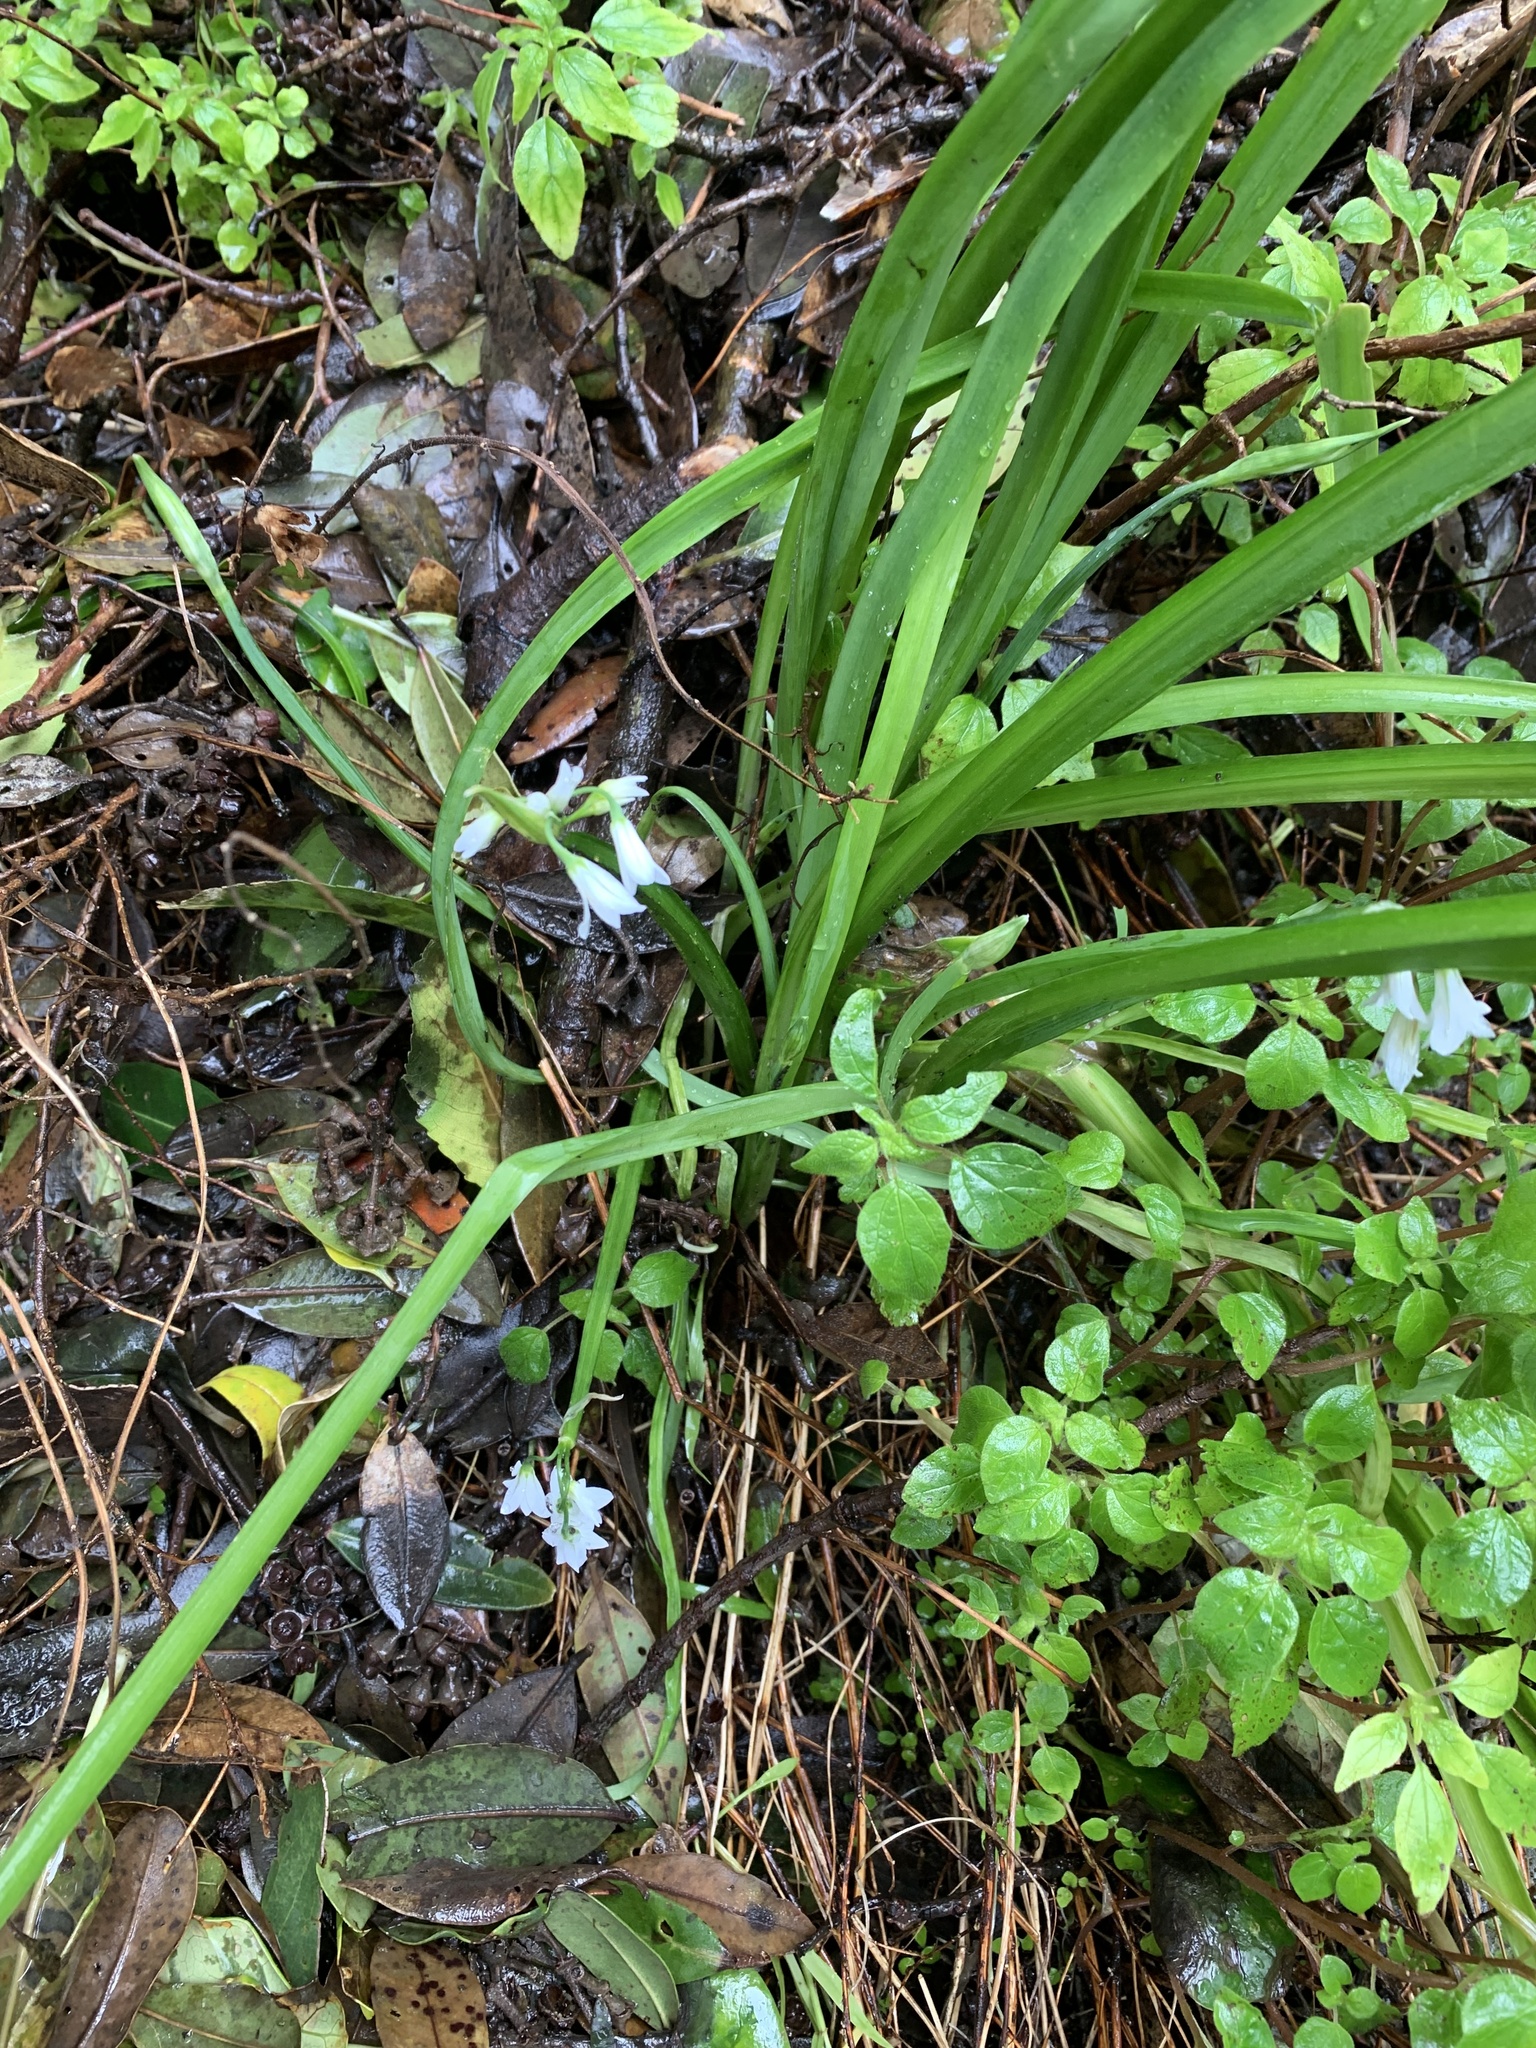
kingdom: Plantae
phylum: Tracheophyta
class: Liliopsida
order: Asparagales
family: Amaryllidaceae
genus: Allium
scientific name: Allium triquetrum
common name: Three-cornered garlic
